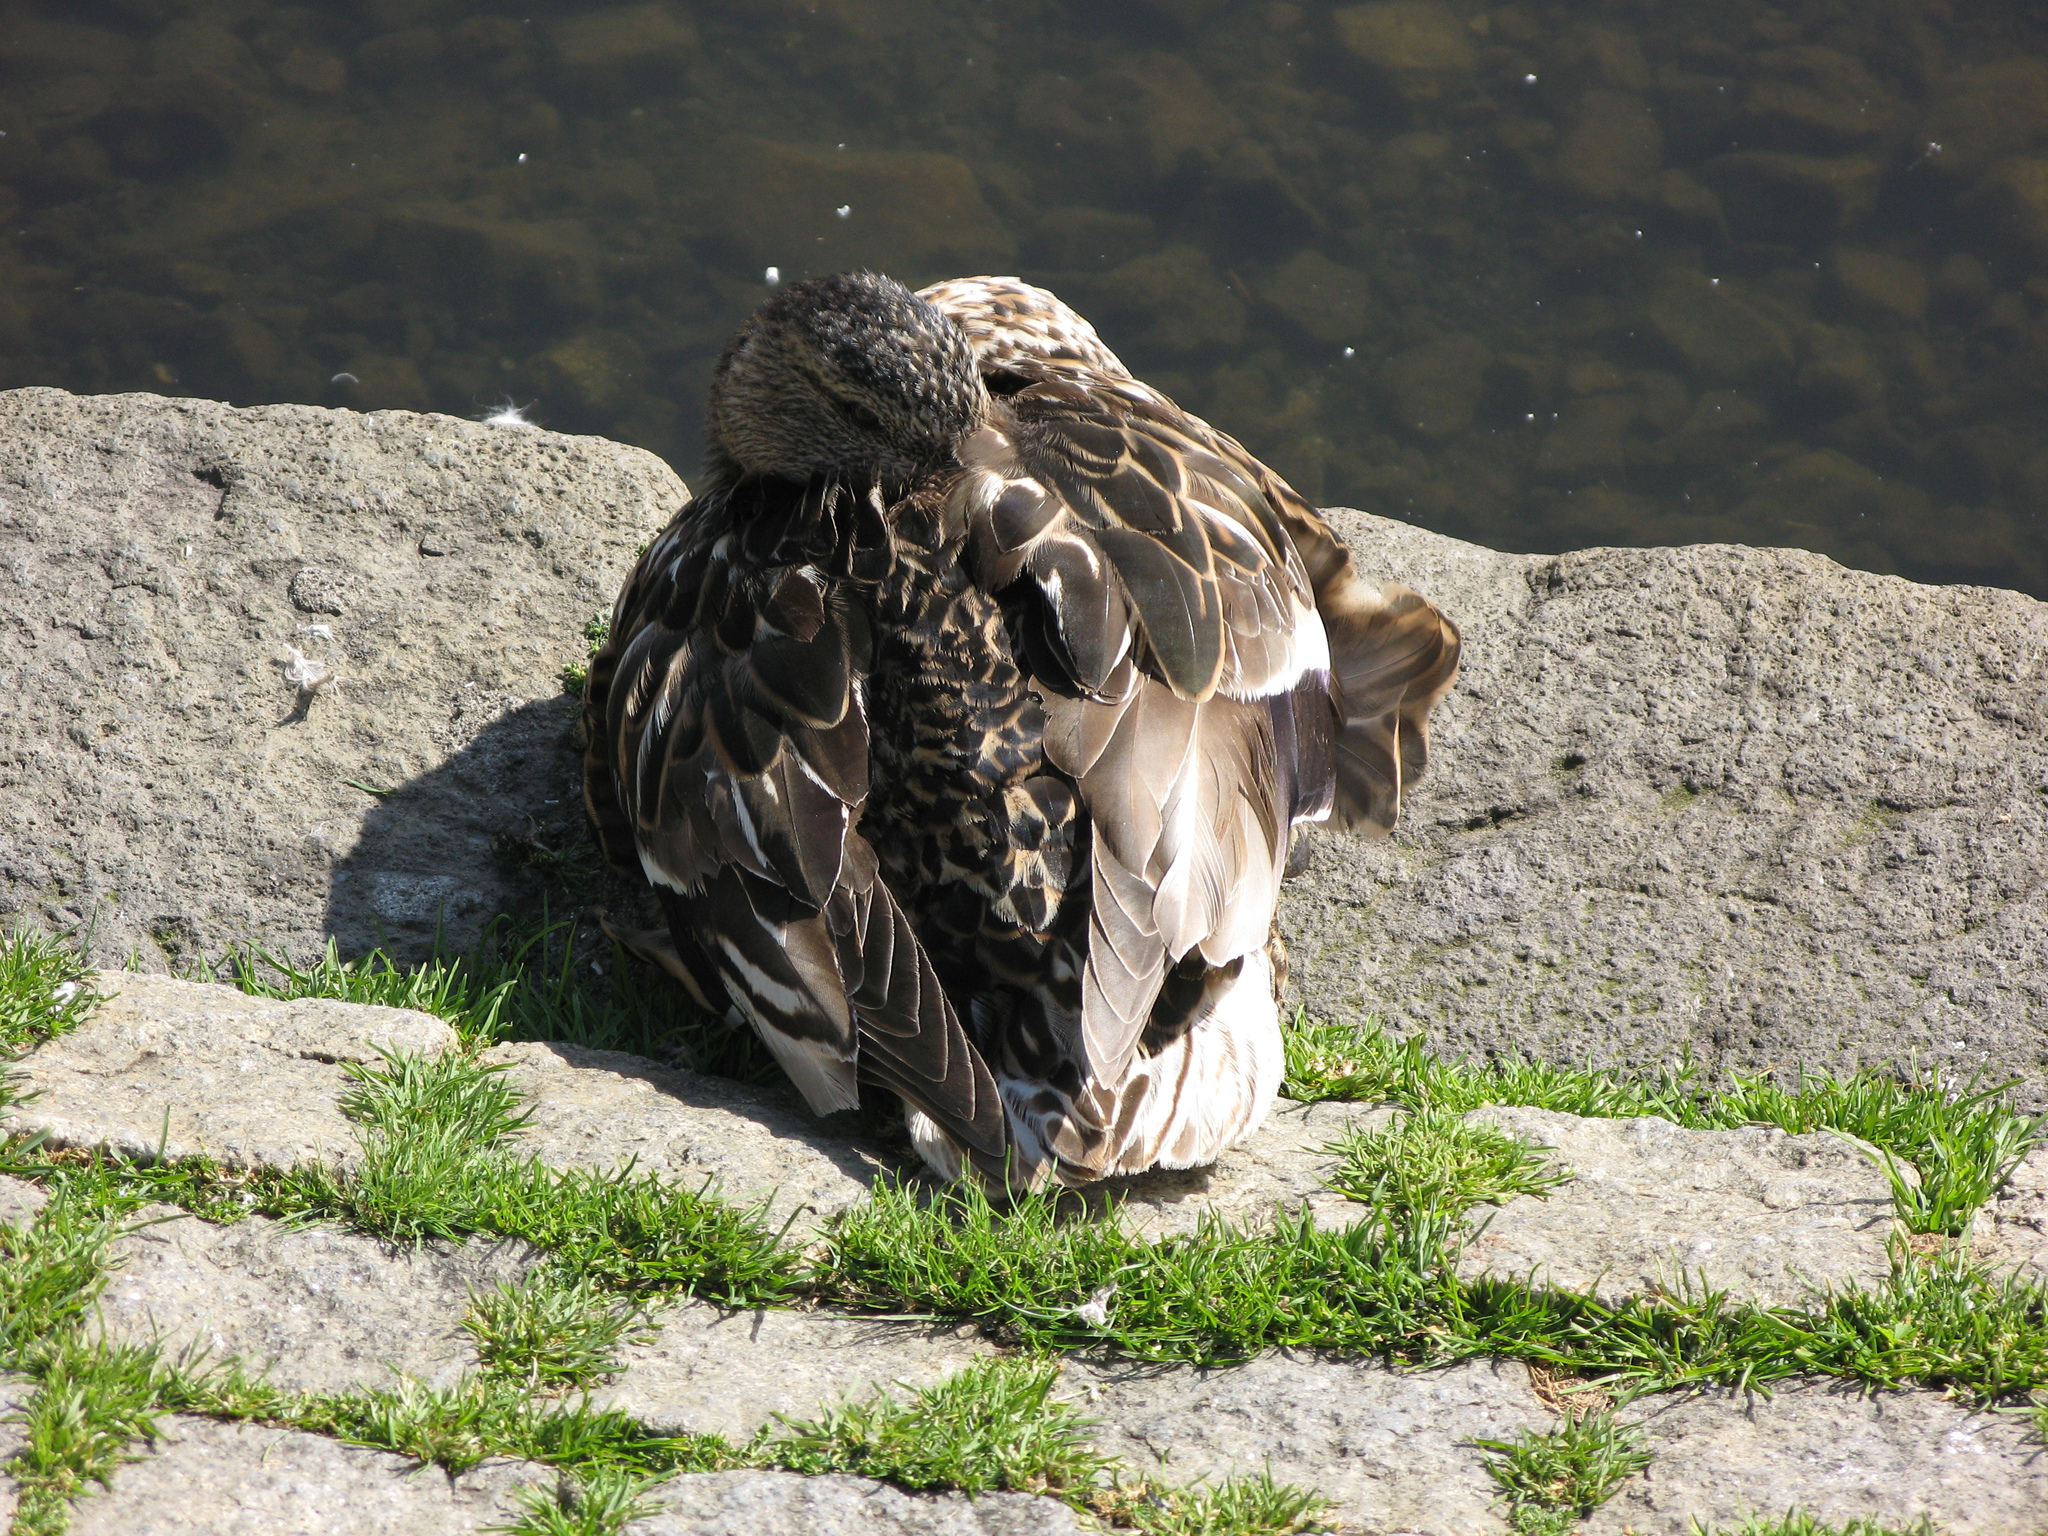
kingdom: Animalia
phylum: Chordata
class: Aves
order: Anseriformes
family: Anatidae
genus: Anas
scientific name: Anas platyrhynchos
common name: Mallard
